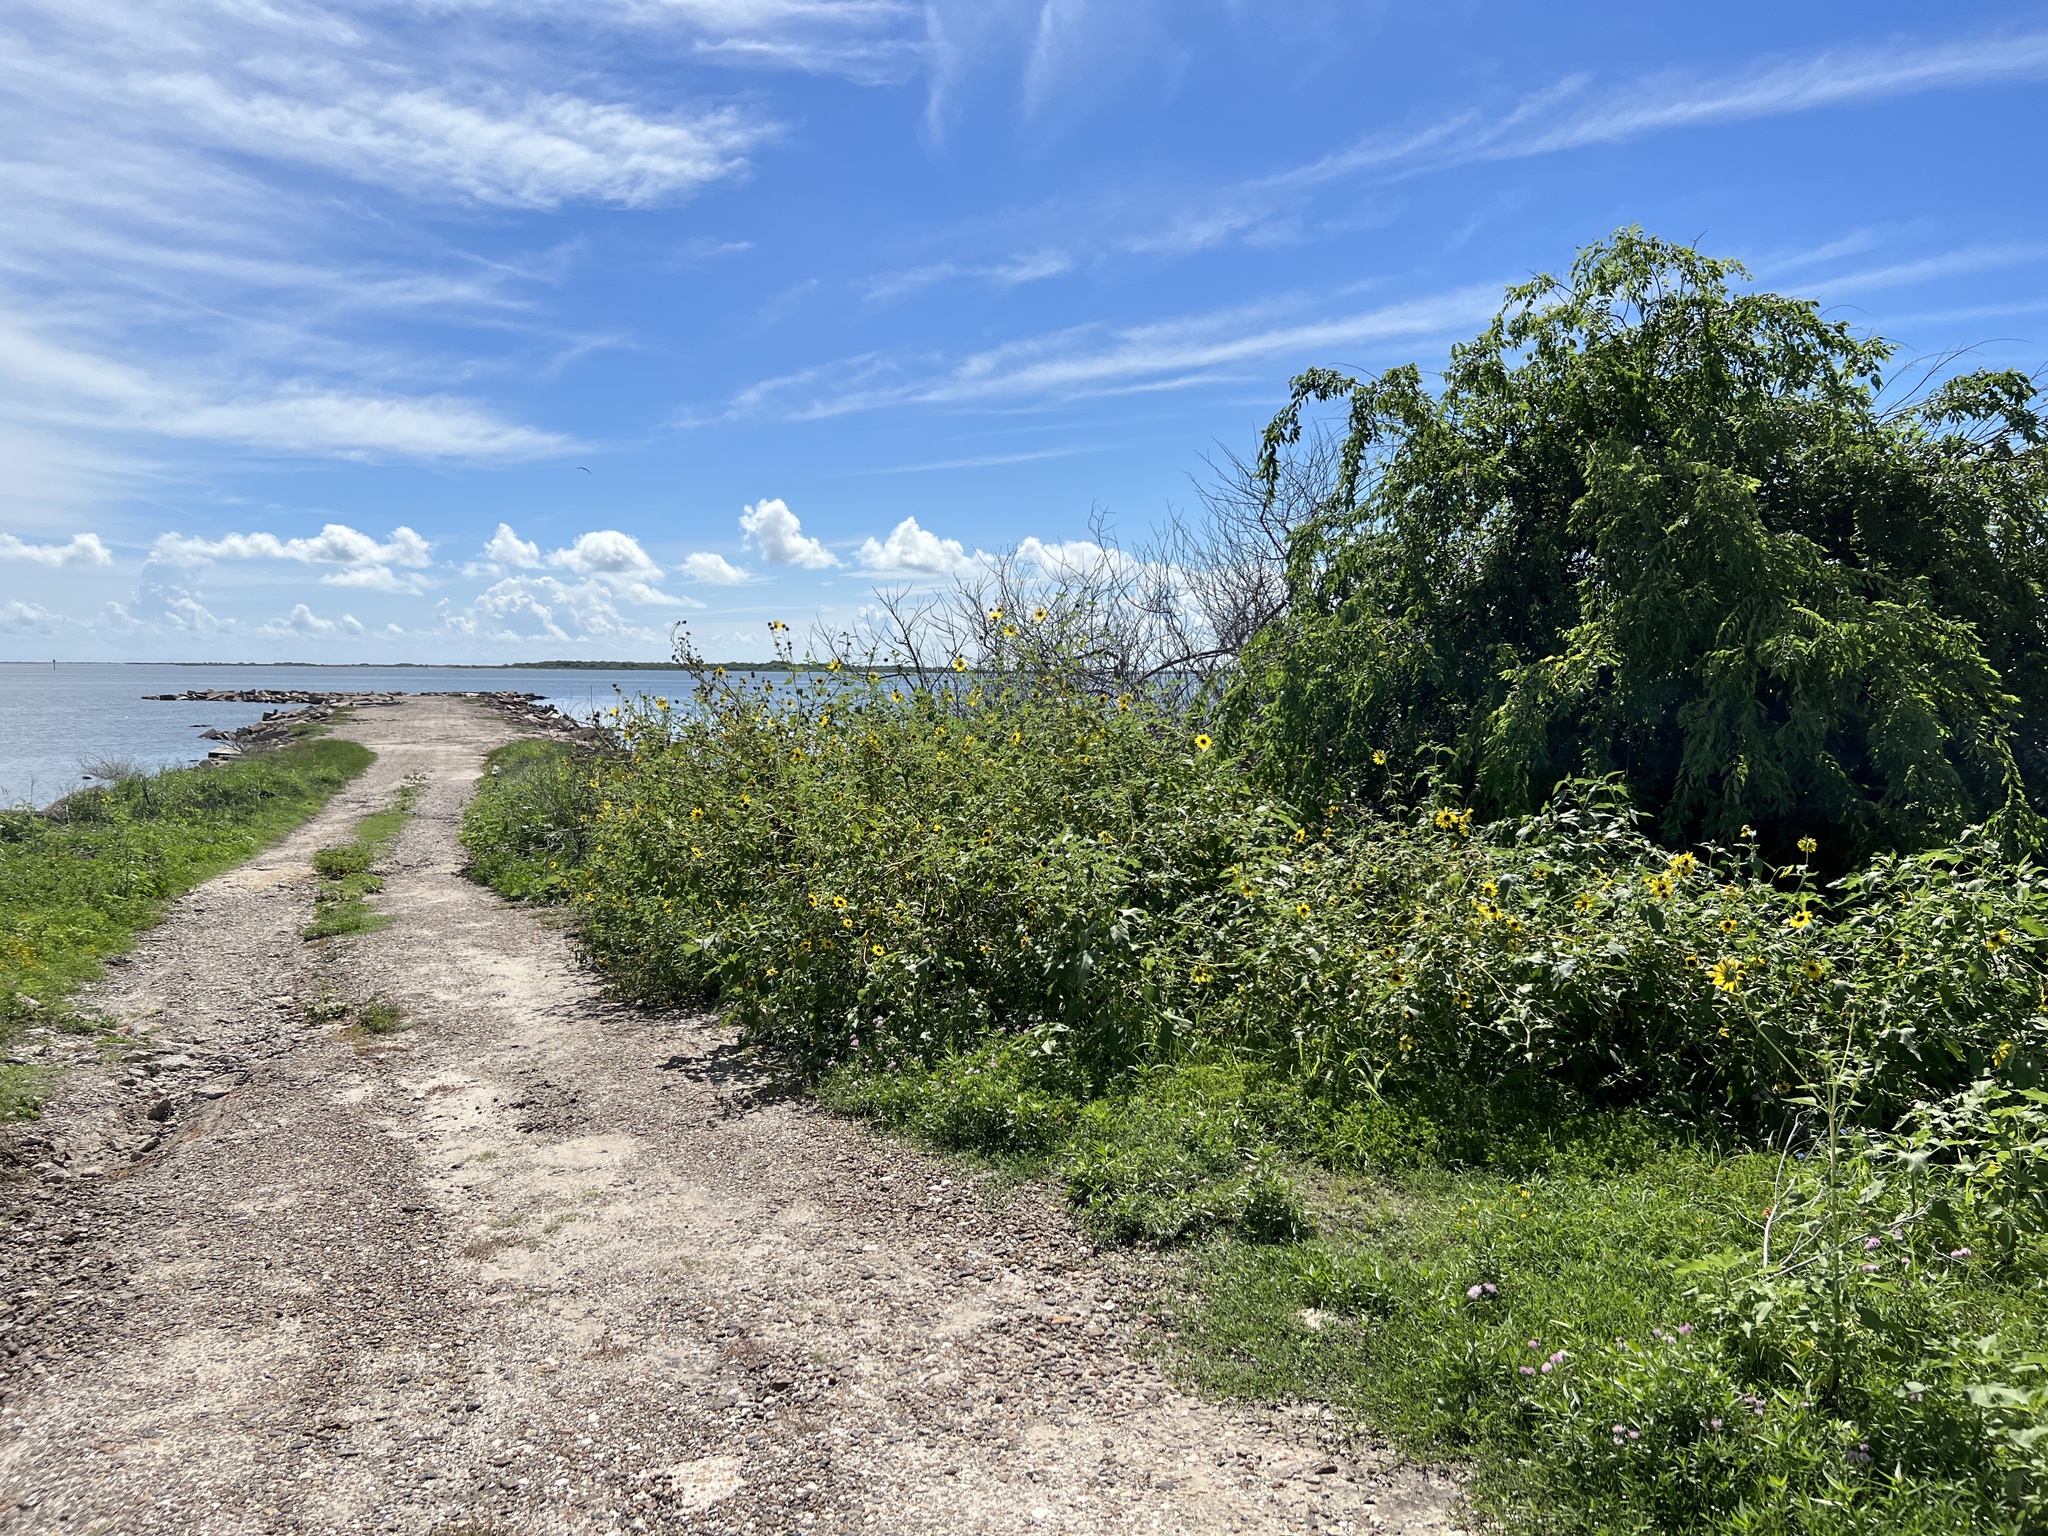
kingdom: Plantae
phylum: Tracheophyta
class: Magnoliopsida
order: Asterales
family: Asteraceae
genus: Helianthus
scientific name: Helianthus annuus
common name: Sunflower
